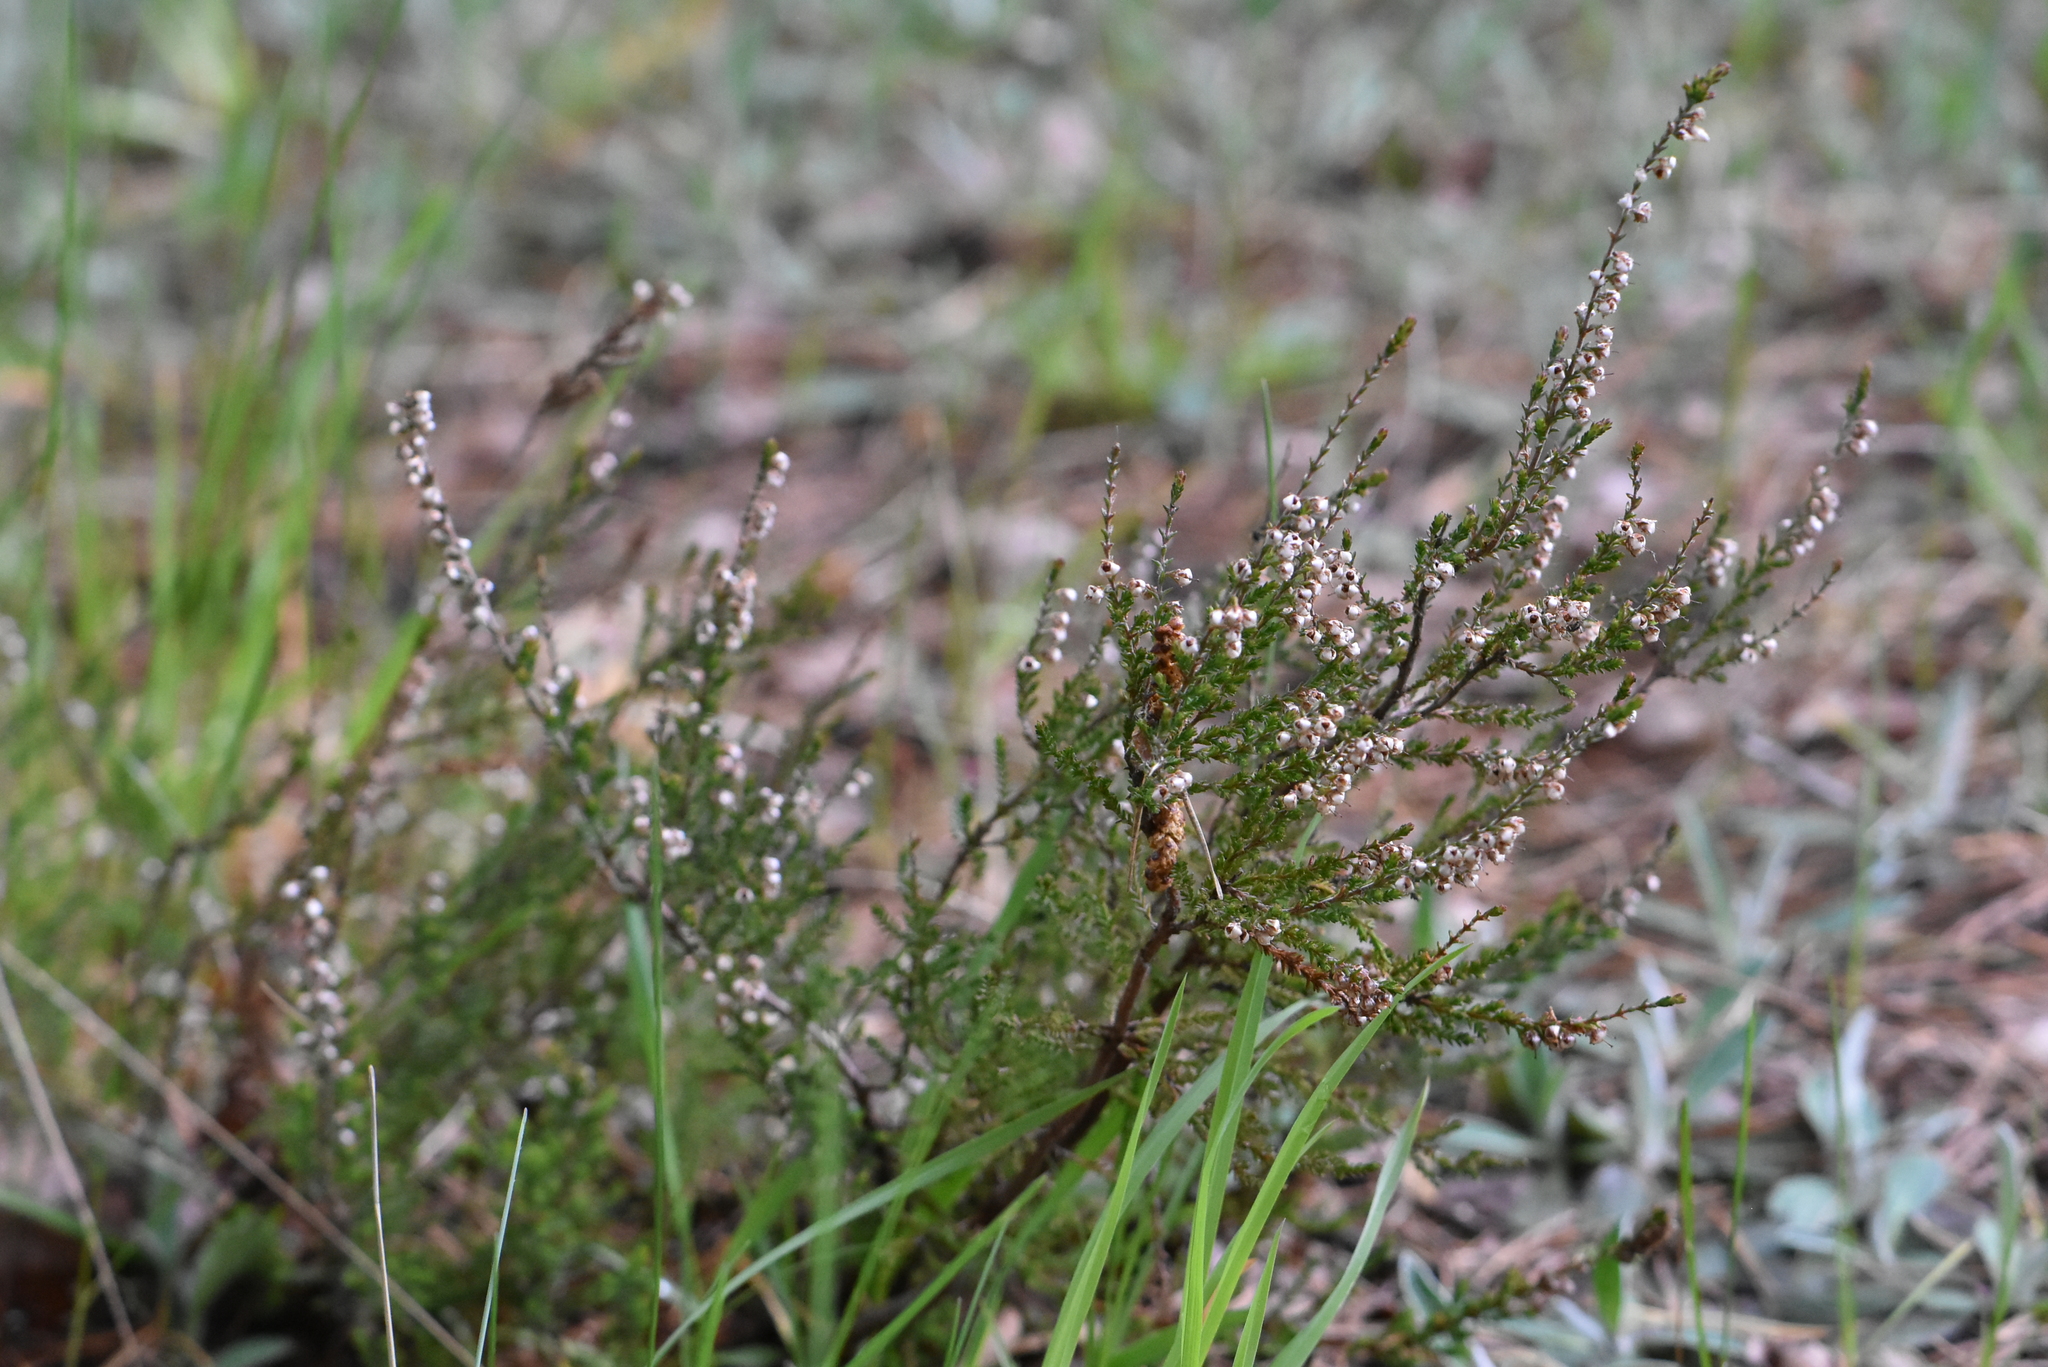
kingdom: Plantae
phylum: Tracheophyta
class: Magnoliopsida
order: Ericales
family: Ericaceae
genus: Calluna
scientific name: Calluna vulgaris
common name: Heather
